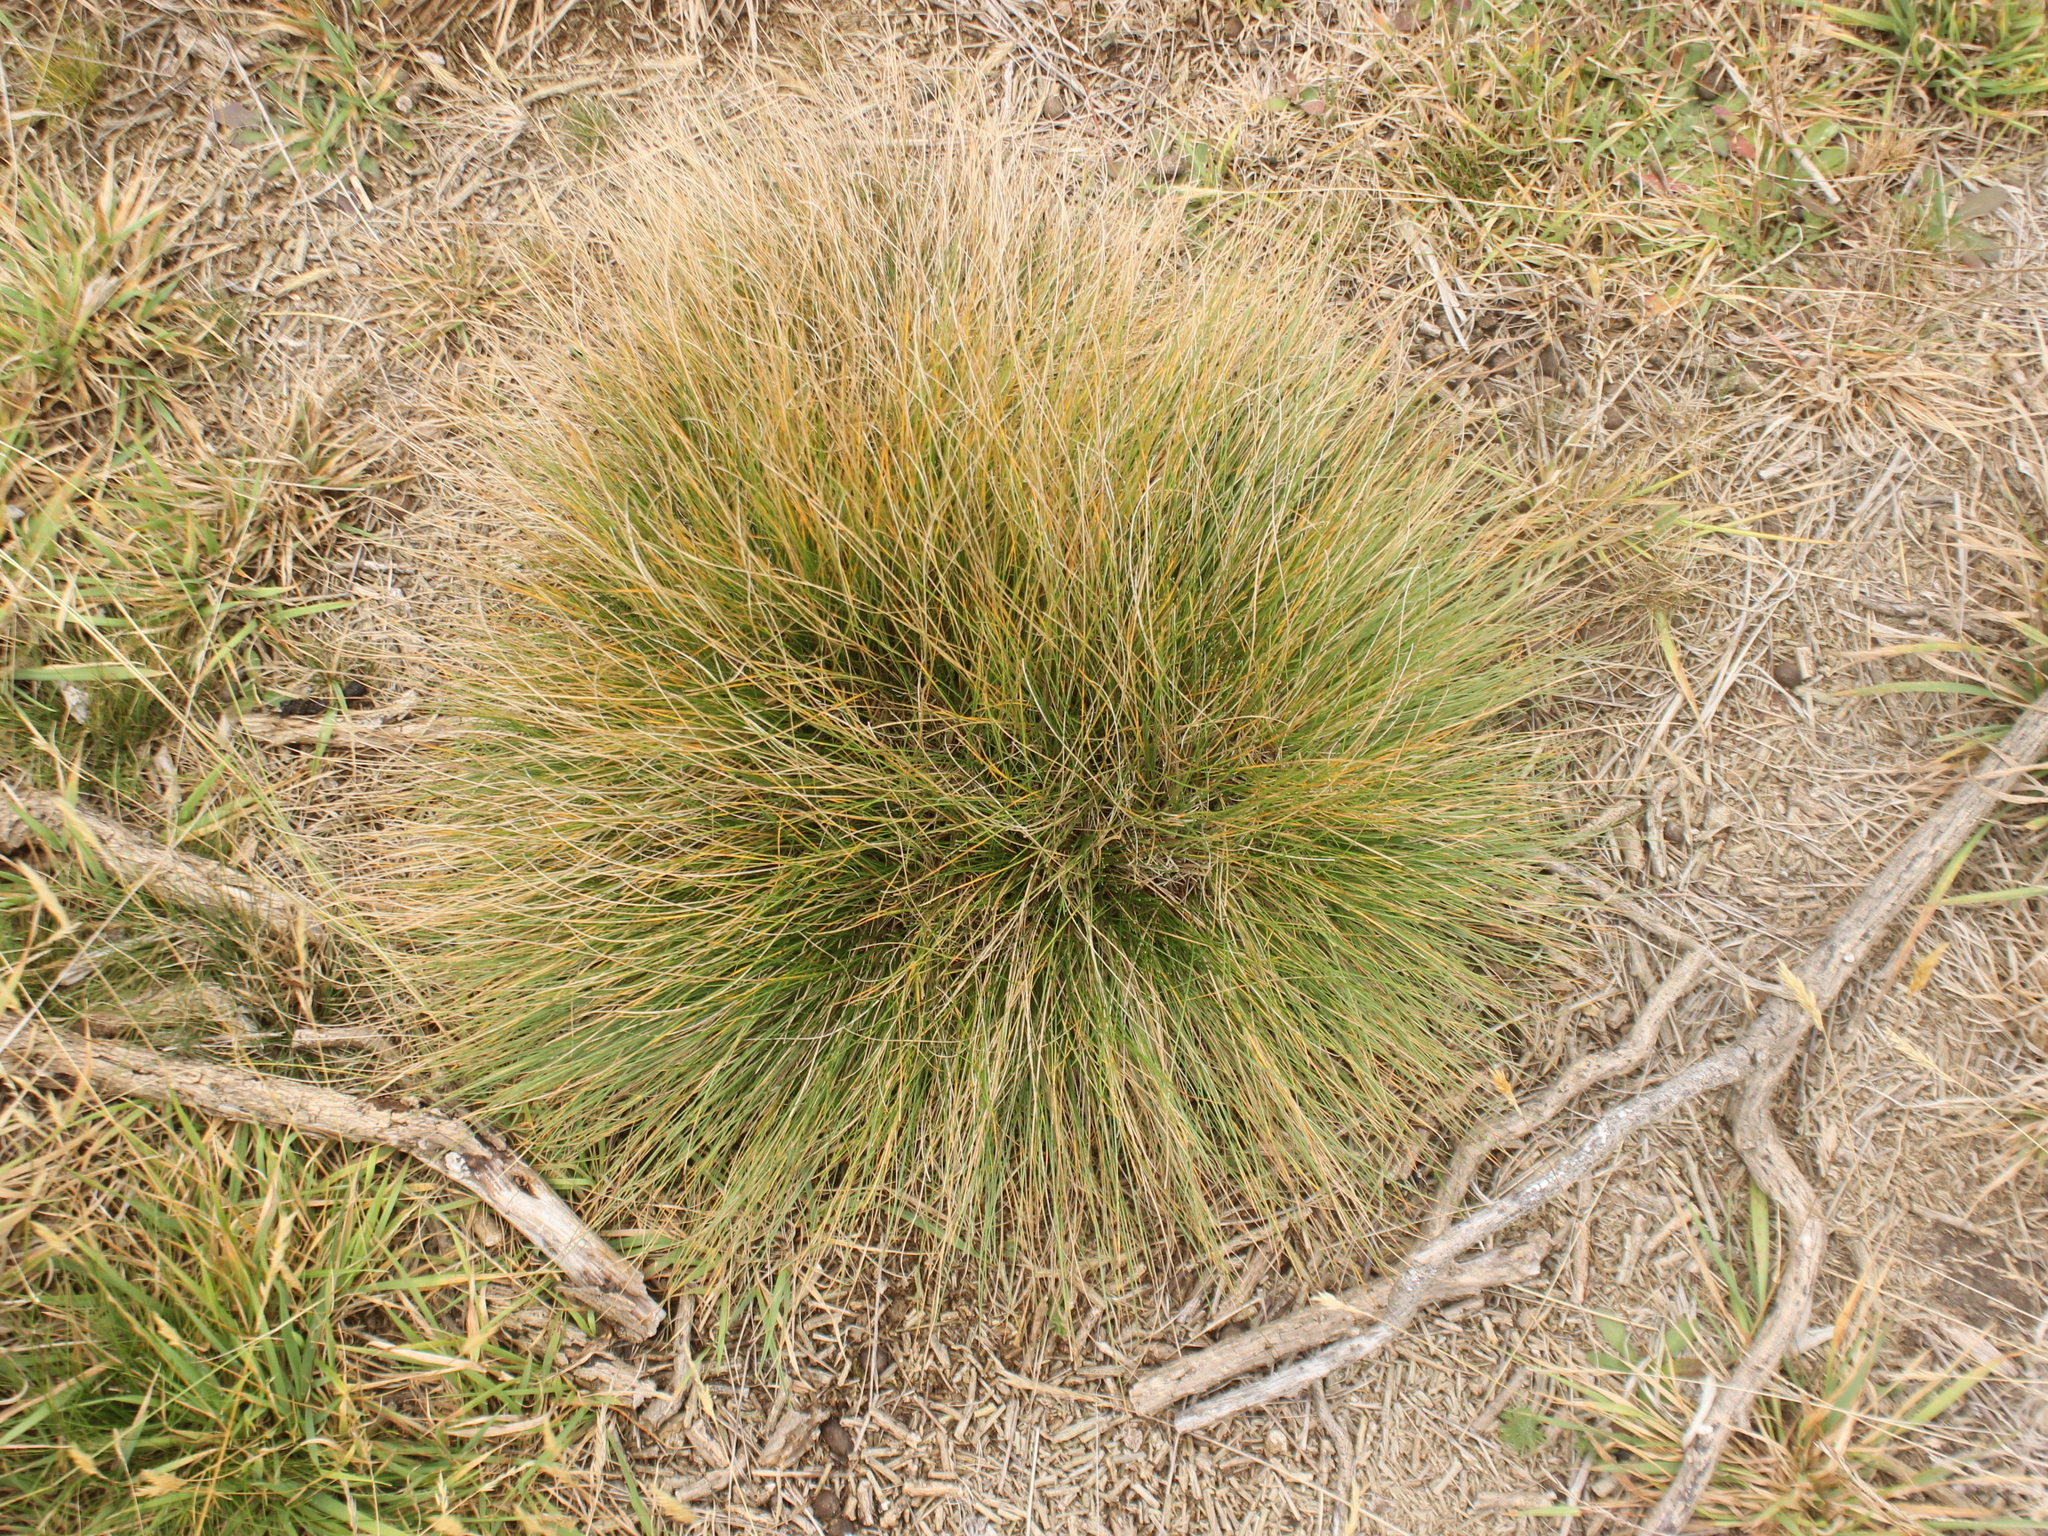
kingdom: Plantae
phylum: Tracheophyta
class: Liliopsida
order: Poales
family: Poaceae
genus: Festuca
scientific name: Festuca rubra
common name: Red fescue
